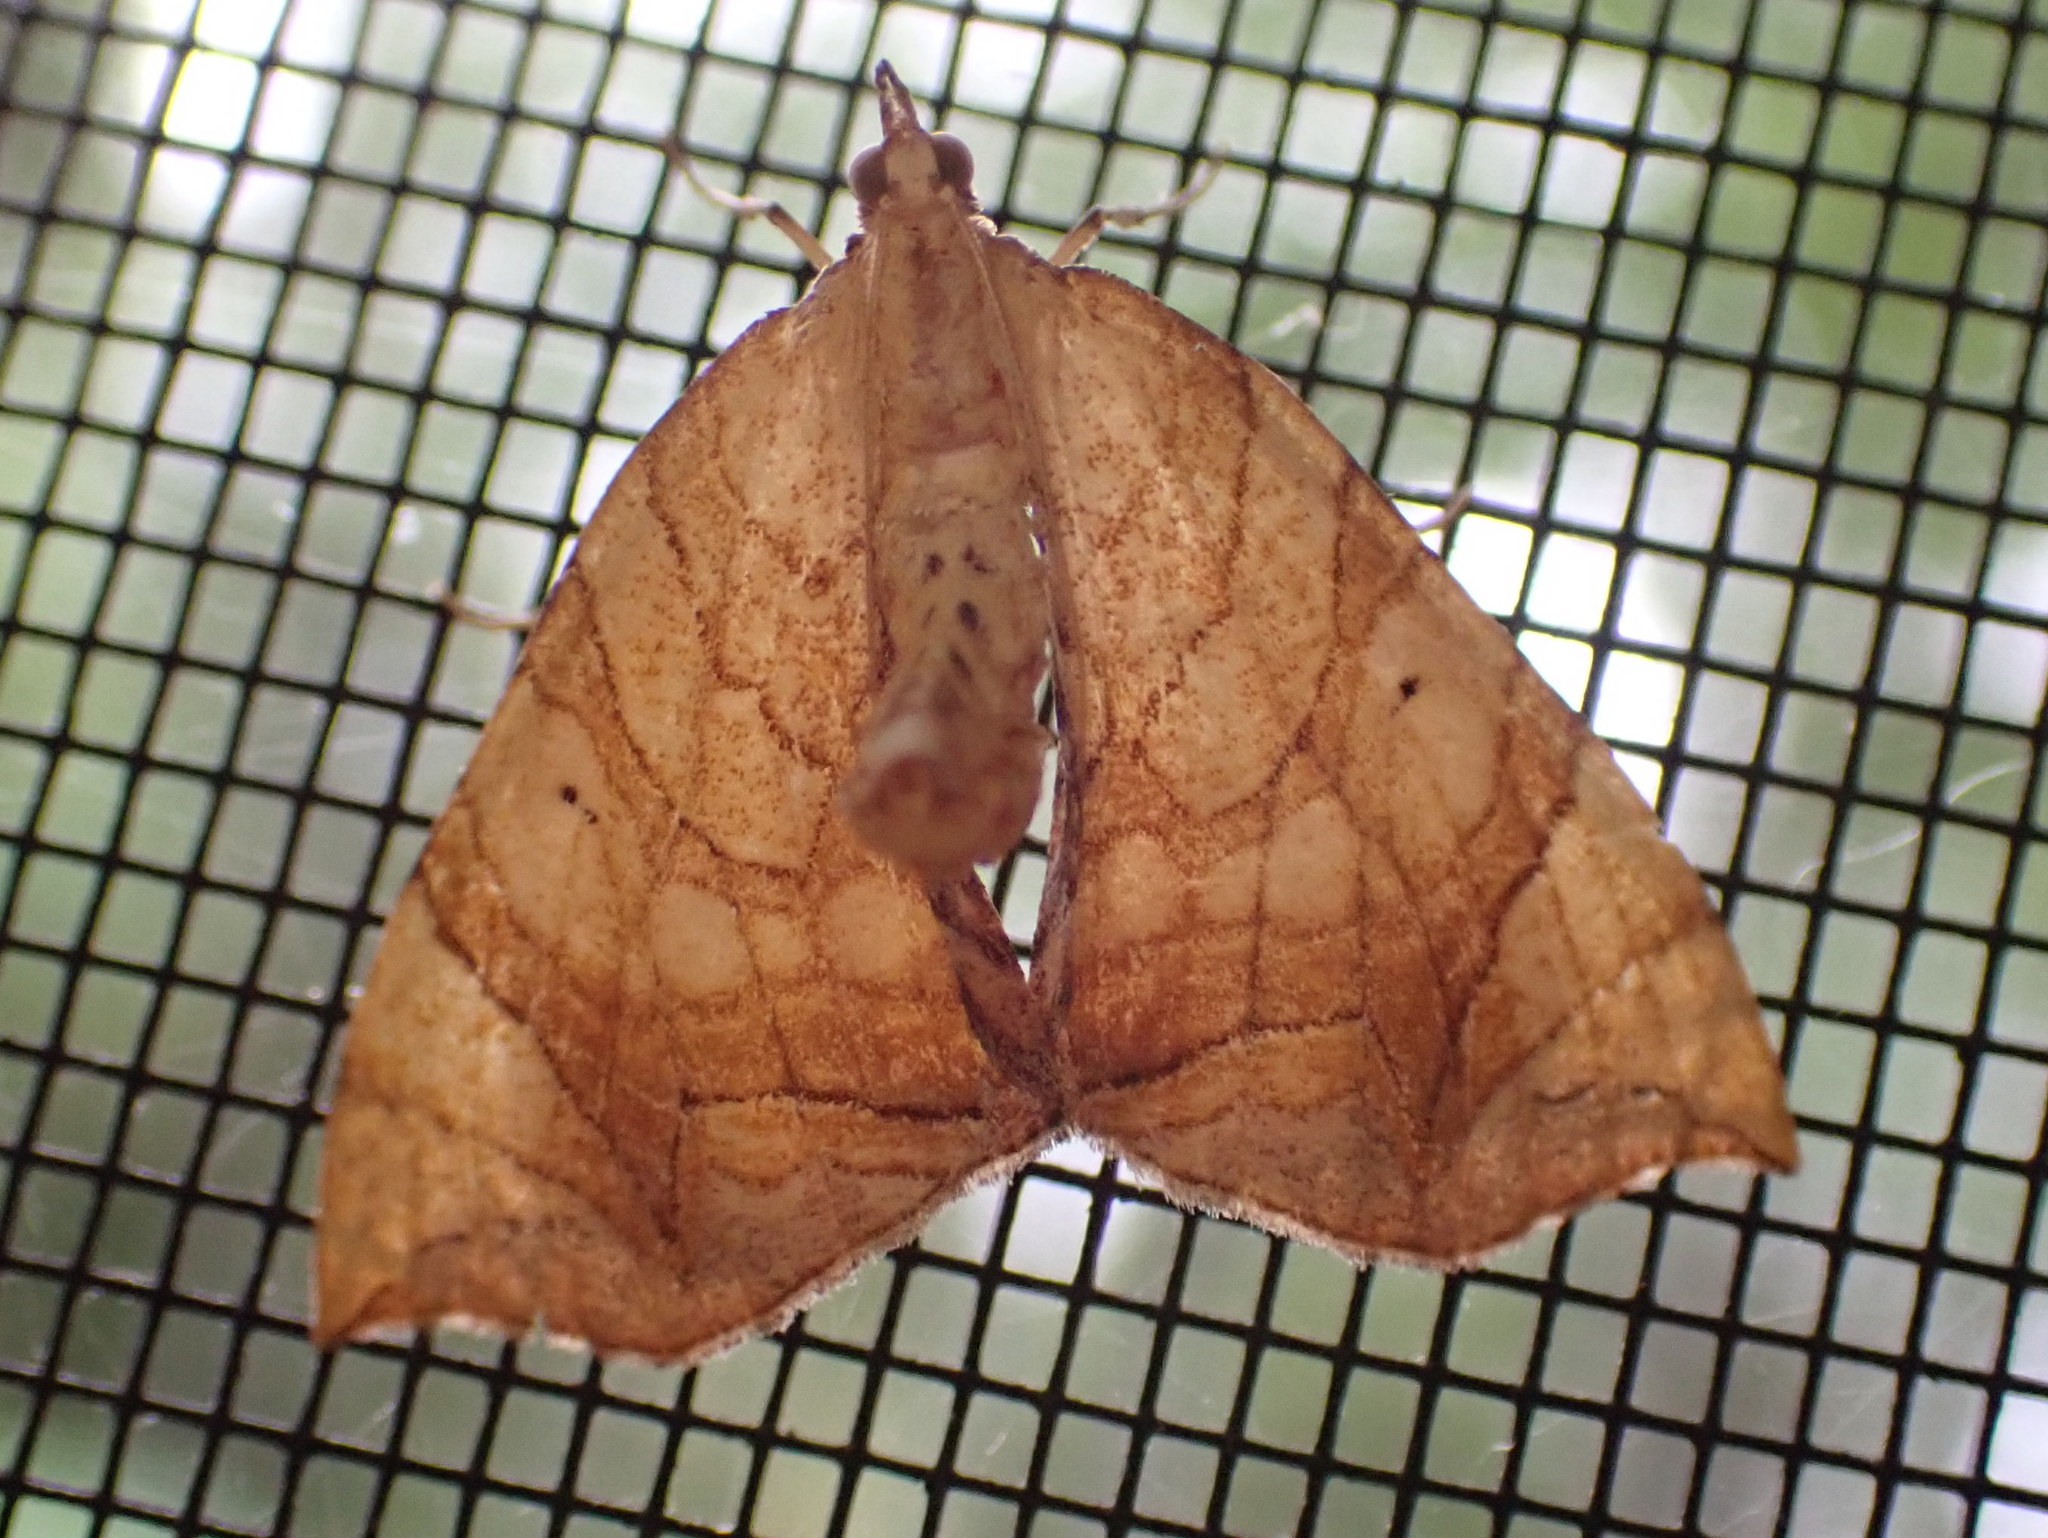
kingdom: Animalia
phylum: Arthropoda
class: Insecta
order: Lepidoptera
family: Geometridae
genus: Eulithis
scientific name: Eulithis
